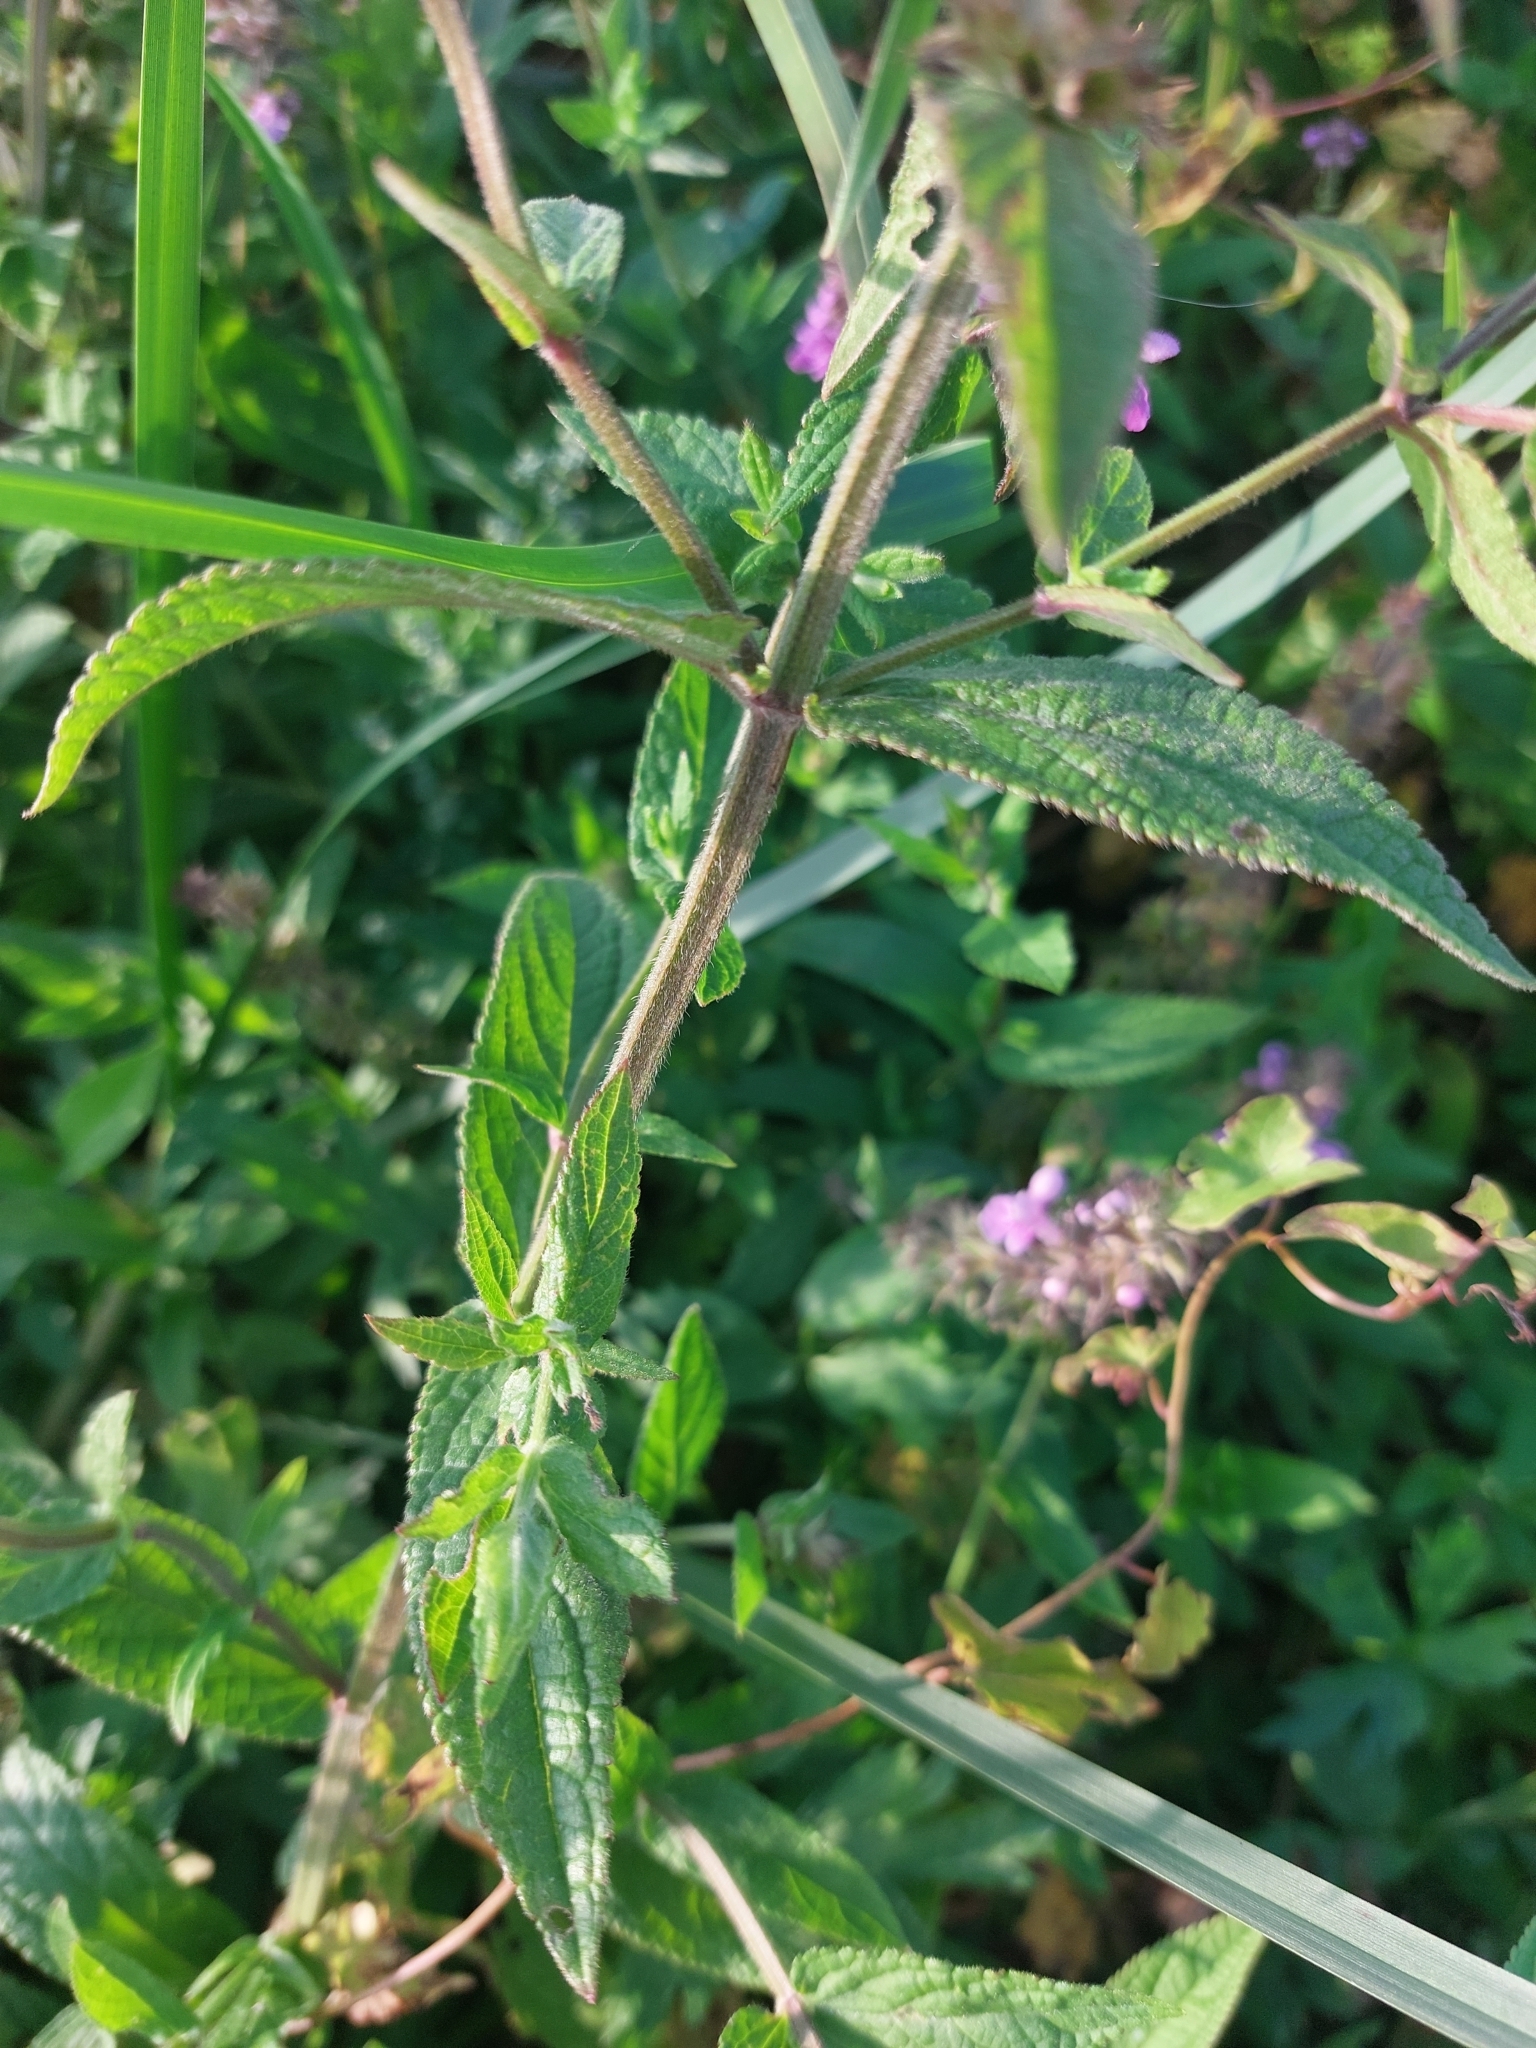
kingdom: Plantae
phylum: Tracheophyta
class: Magnoliopsida
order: Lamiales
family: Lamiaceae
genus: Stachys
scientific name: Stachys palustris
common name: Marsh woundwort
